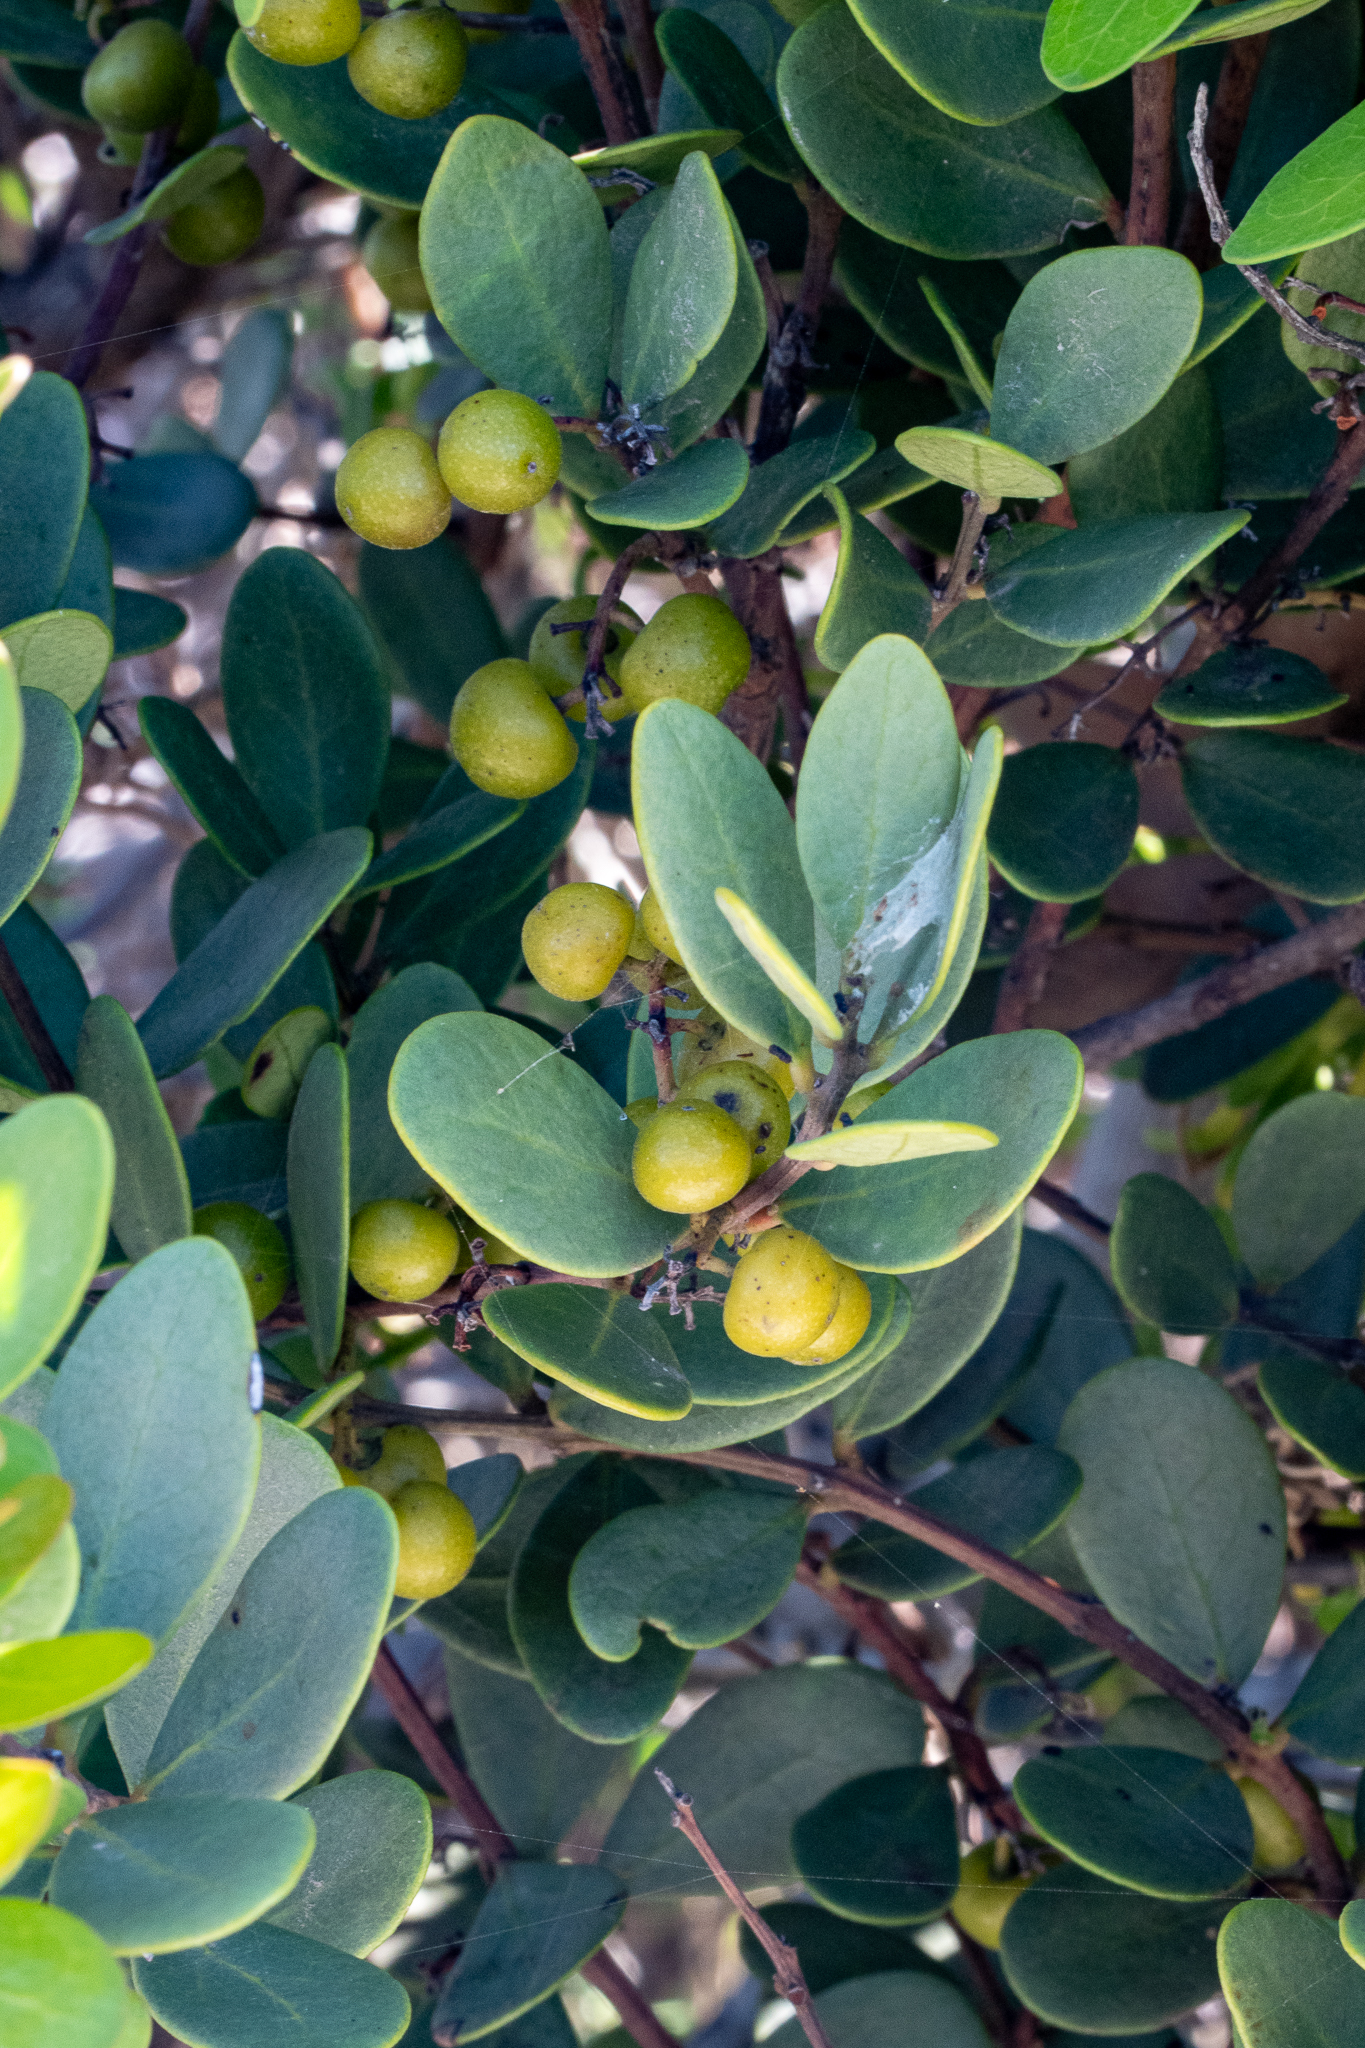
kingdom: Plantae
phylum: Tracheophyta
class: Magnoliopsida
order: Ericales
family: Ebenaceae
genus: Euclea
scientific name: Euclea racemosa
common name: Dune guarri
